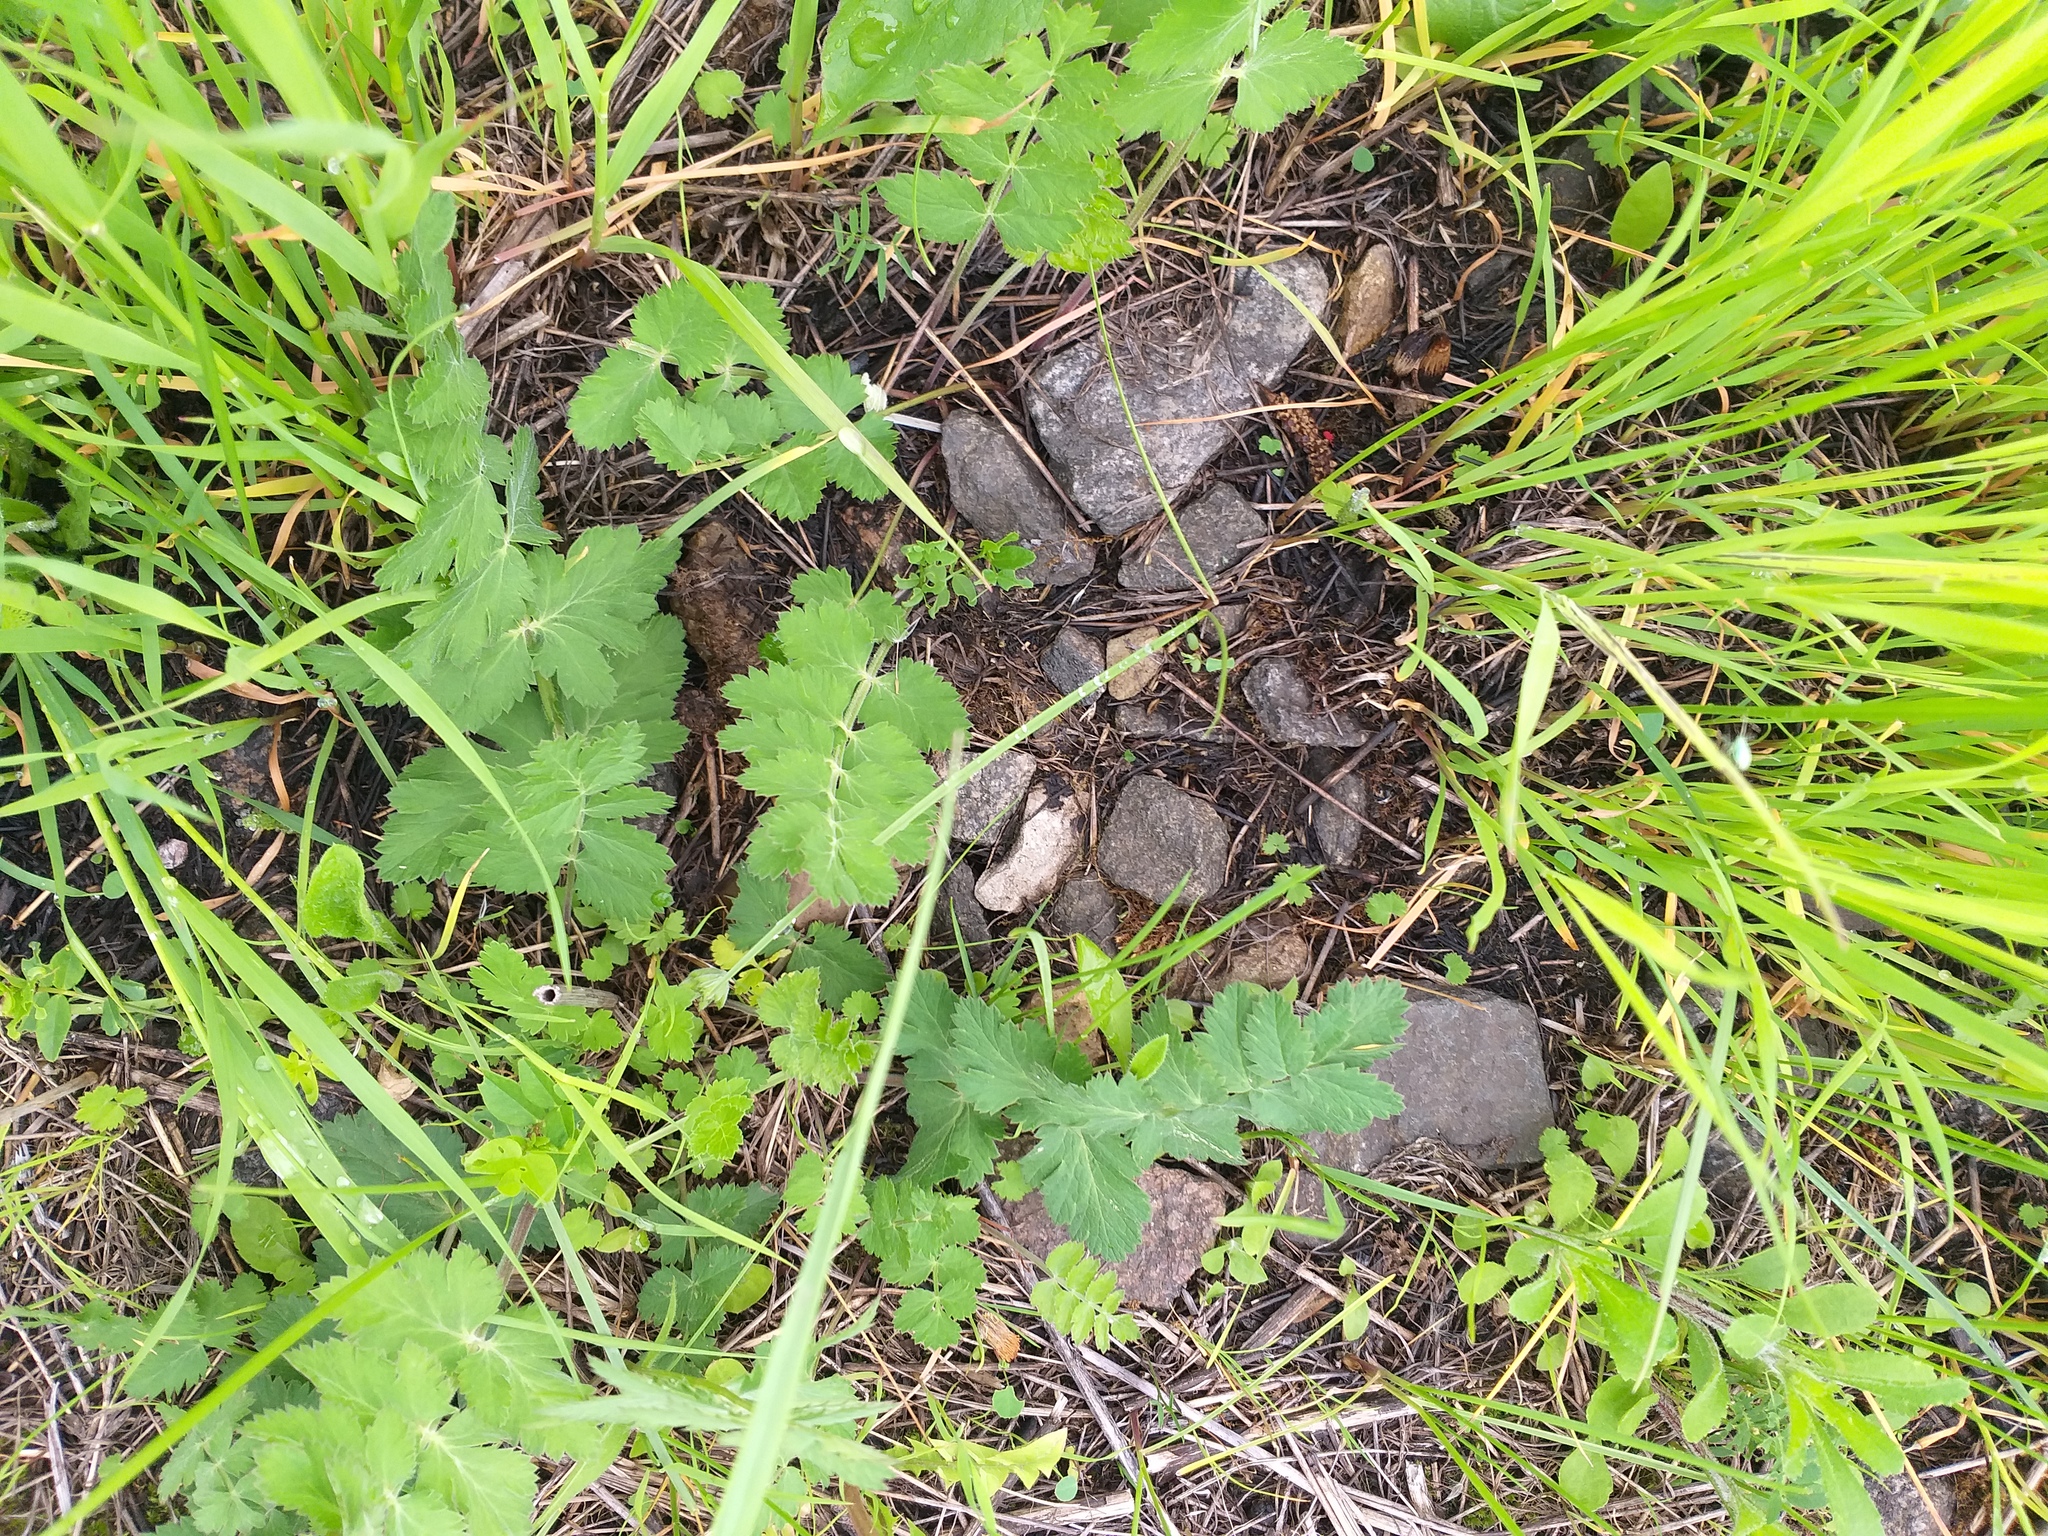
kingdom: Plantae
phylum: Tracheophyta
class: Magnoliopsida
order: Apiales
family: Apiaceae
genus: Pimpinella
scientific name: Pimpinella saxifraga
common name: Burnet-saxifrage
